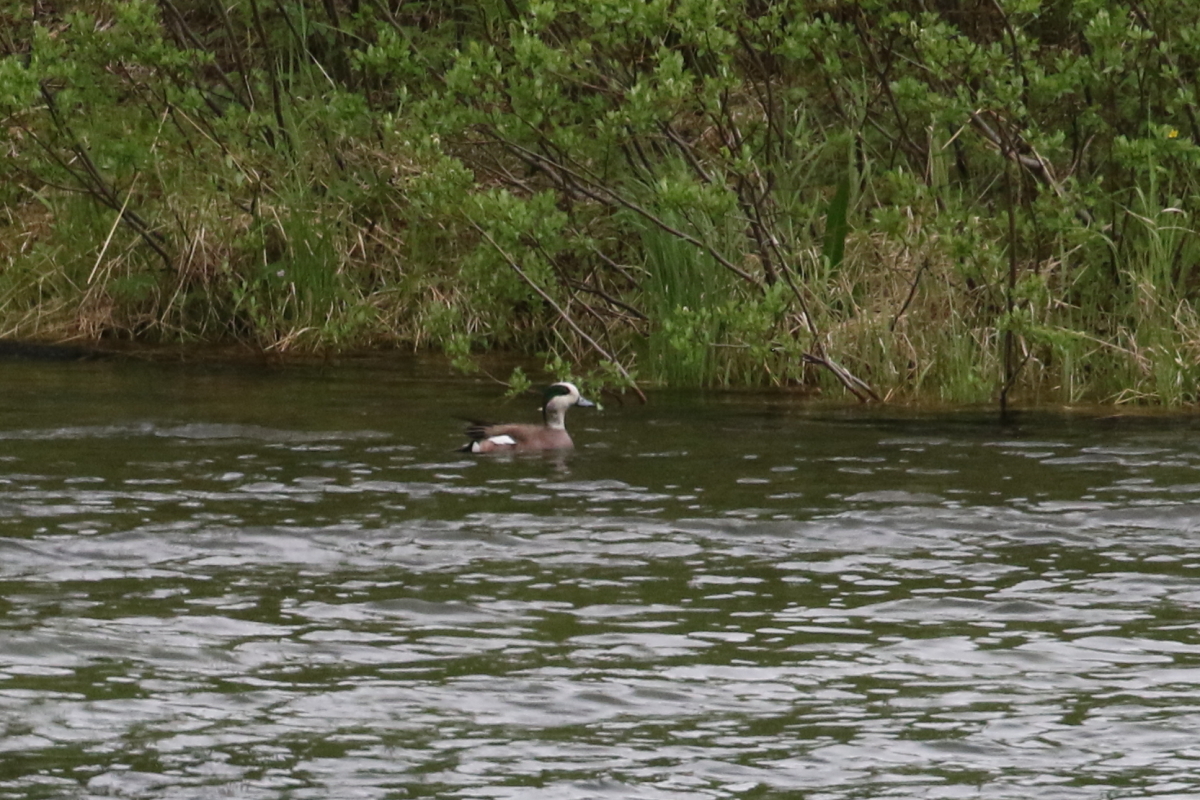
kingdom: Animalia
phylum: Chordata
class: Aves
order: Anseriformes
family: Anatidae
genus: Mareca
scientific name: Mareca americana
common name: American wigeon
